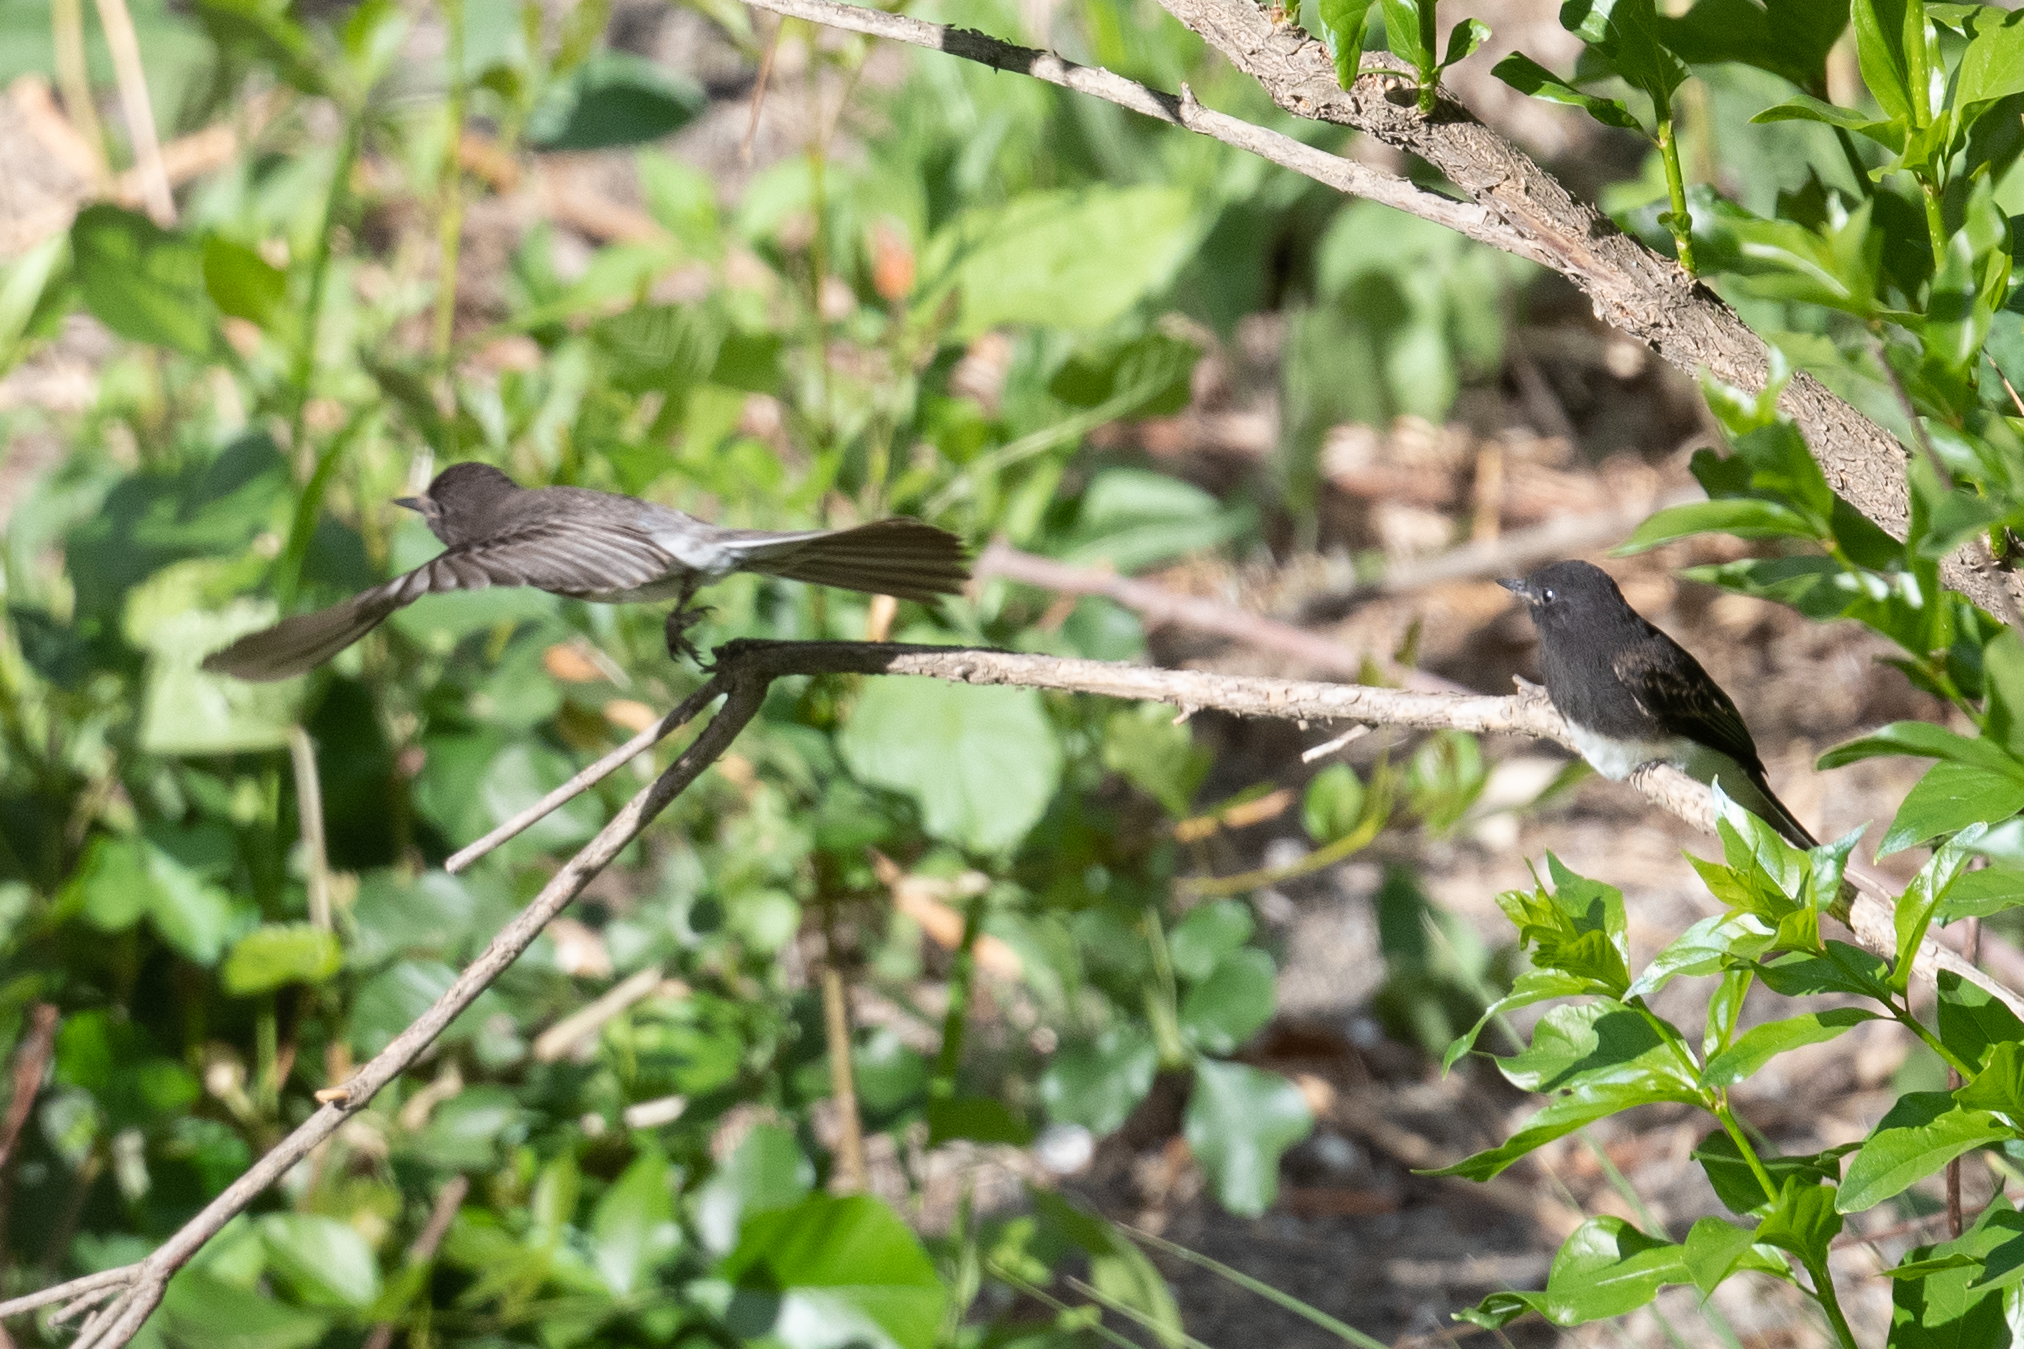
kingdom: Animalia
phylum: Chordata
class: Aves
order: Passeriformes
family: Tyrannidae
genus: Sayornis
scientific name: Sayornis nigricans
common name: Black phoebe
